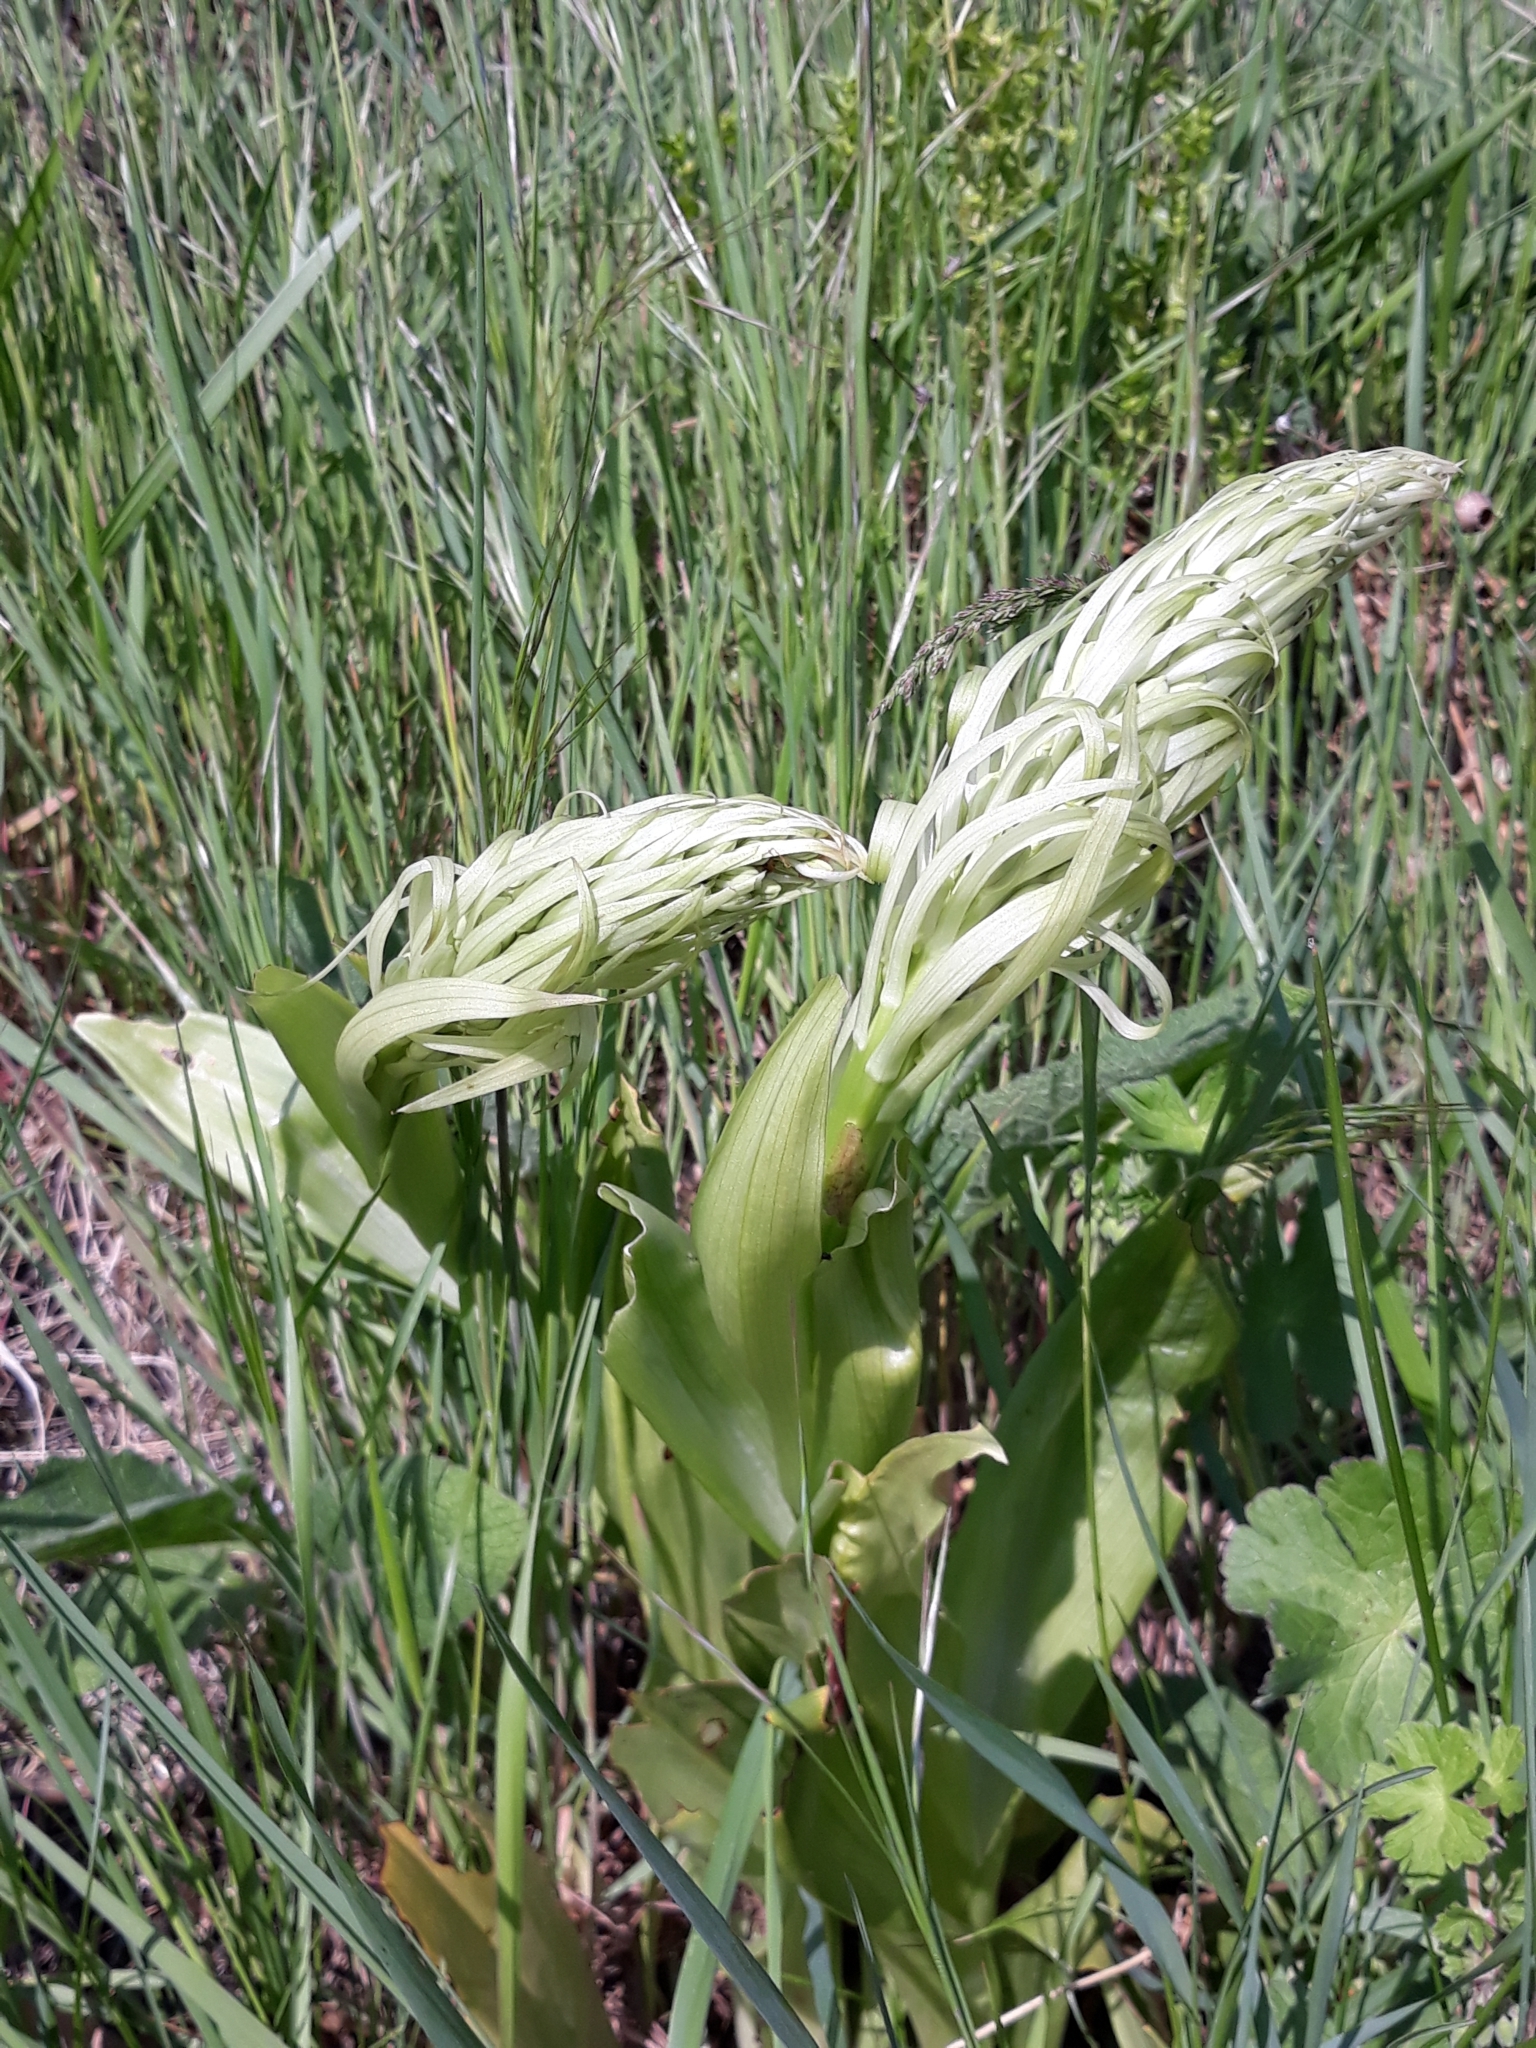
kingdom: Plantae
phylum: Tracheophyta
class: Liliopsida
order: Asparagales
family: Orchidaceae
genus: Himantoglossum
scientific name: Himantoglossum hircinum
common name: Lizard orchid
